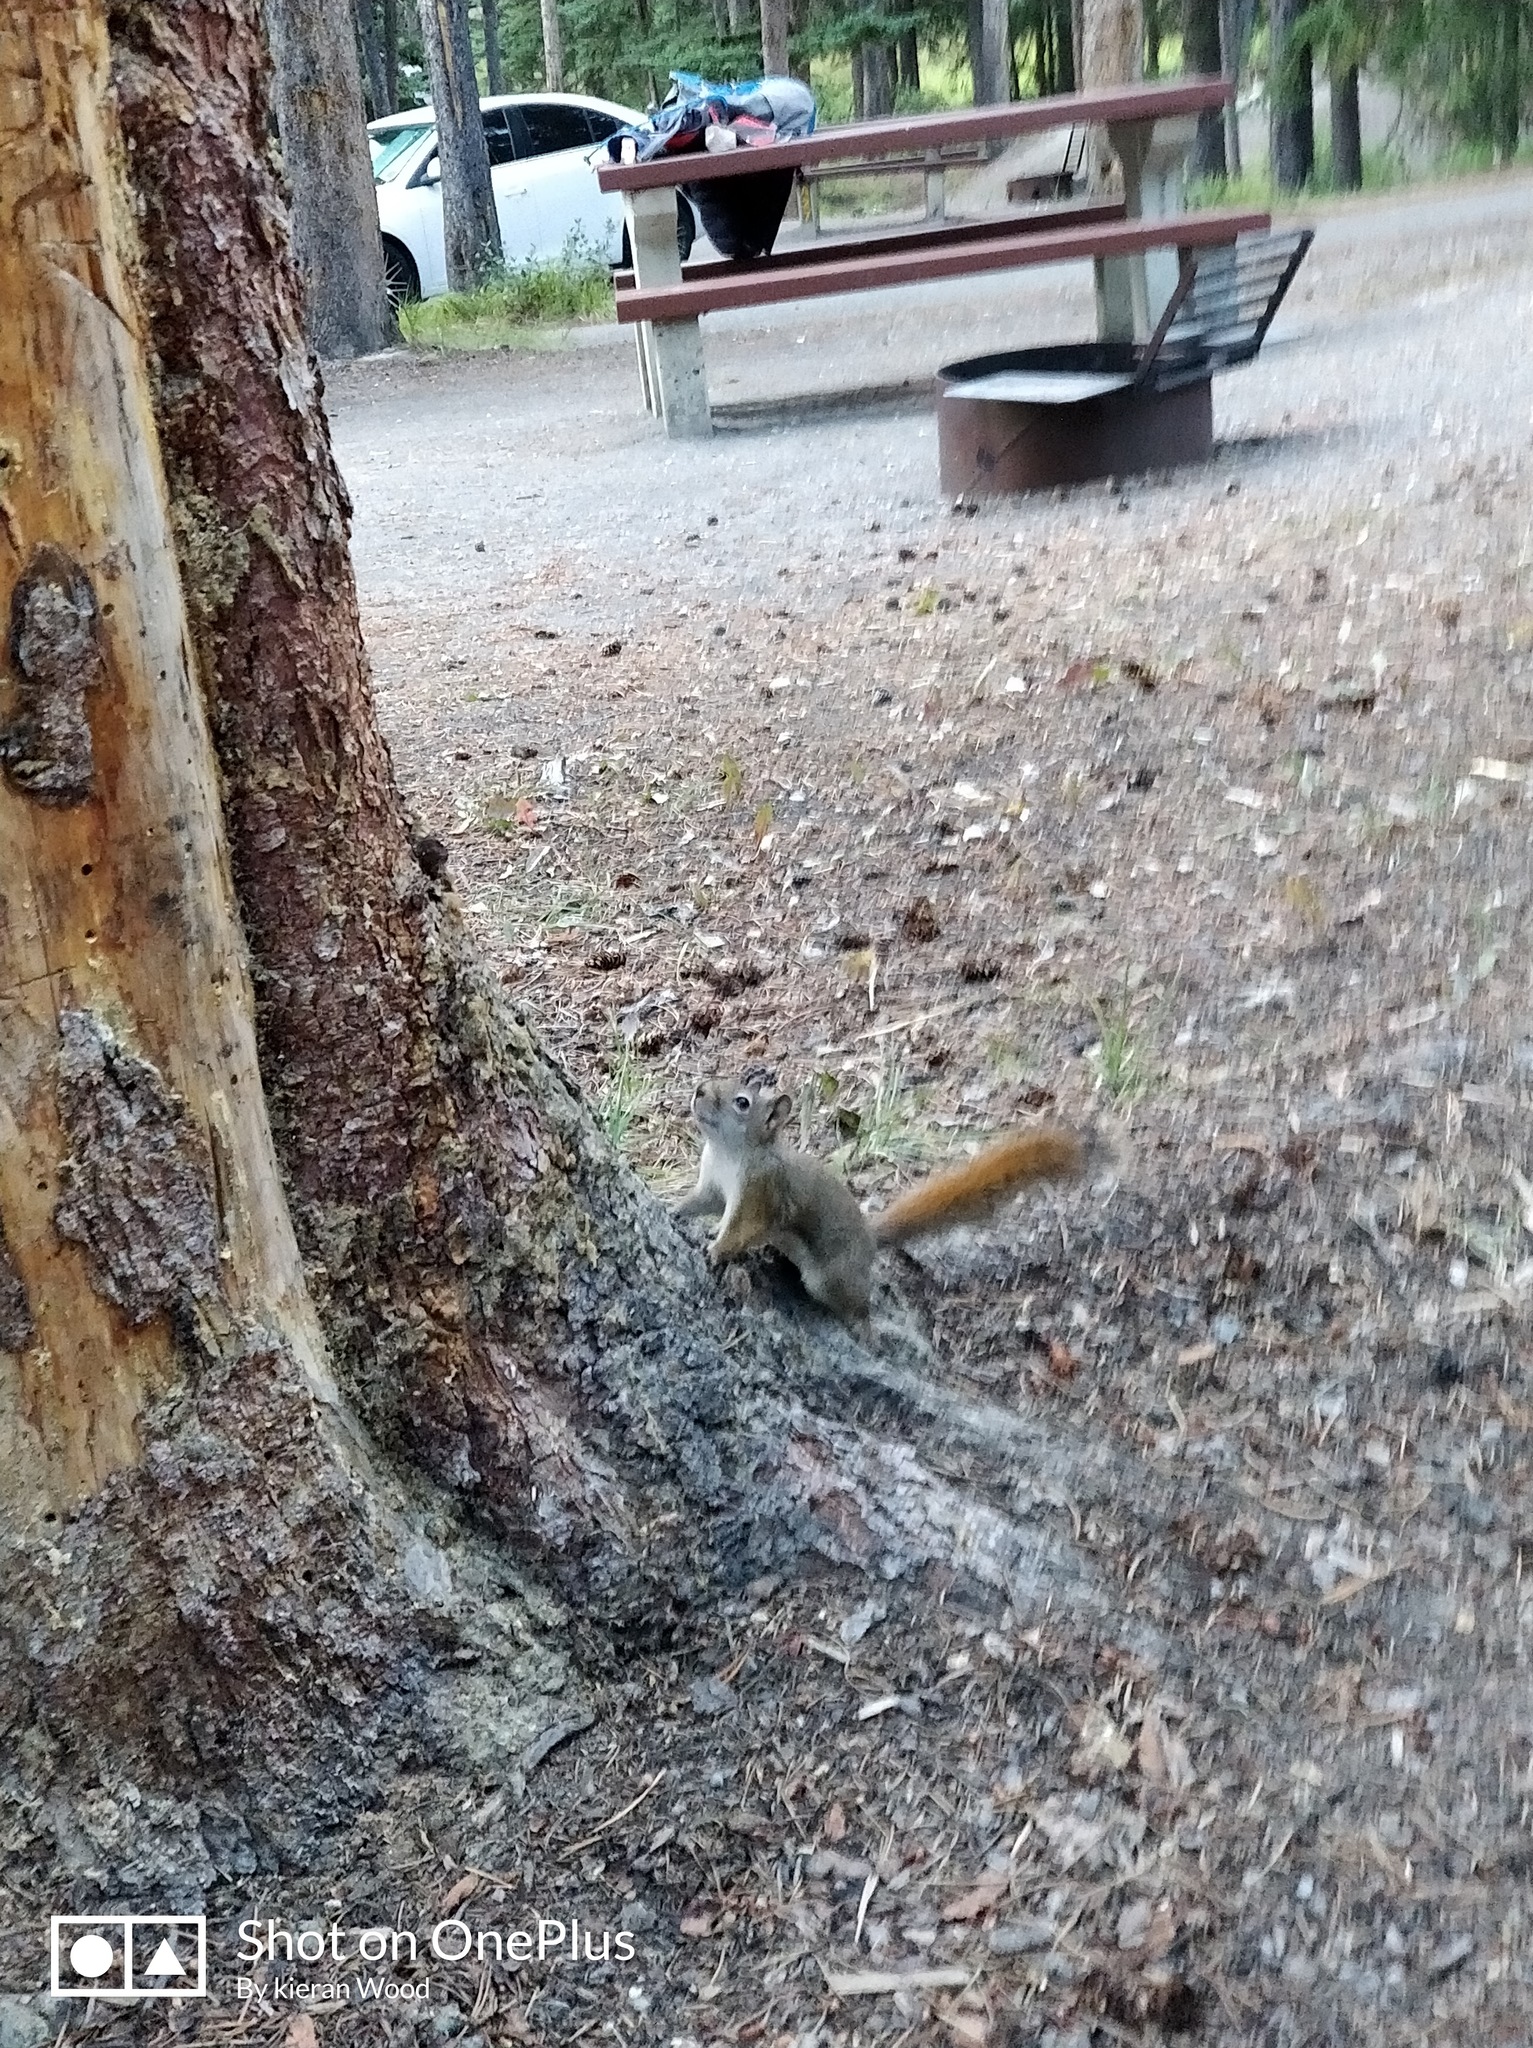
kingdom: Animalia
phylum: Chordata
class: Mammalia
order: Rodentia
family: Sciuridae
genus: Tamiasciurus
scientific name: Tamiasciurus hudsonicus
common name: Red squirrel
